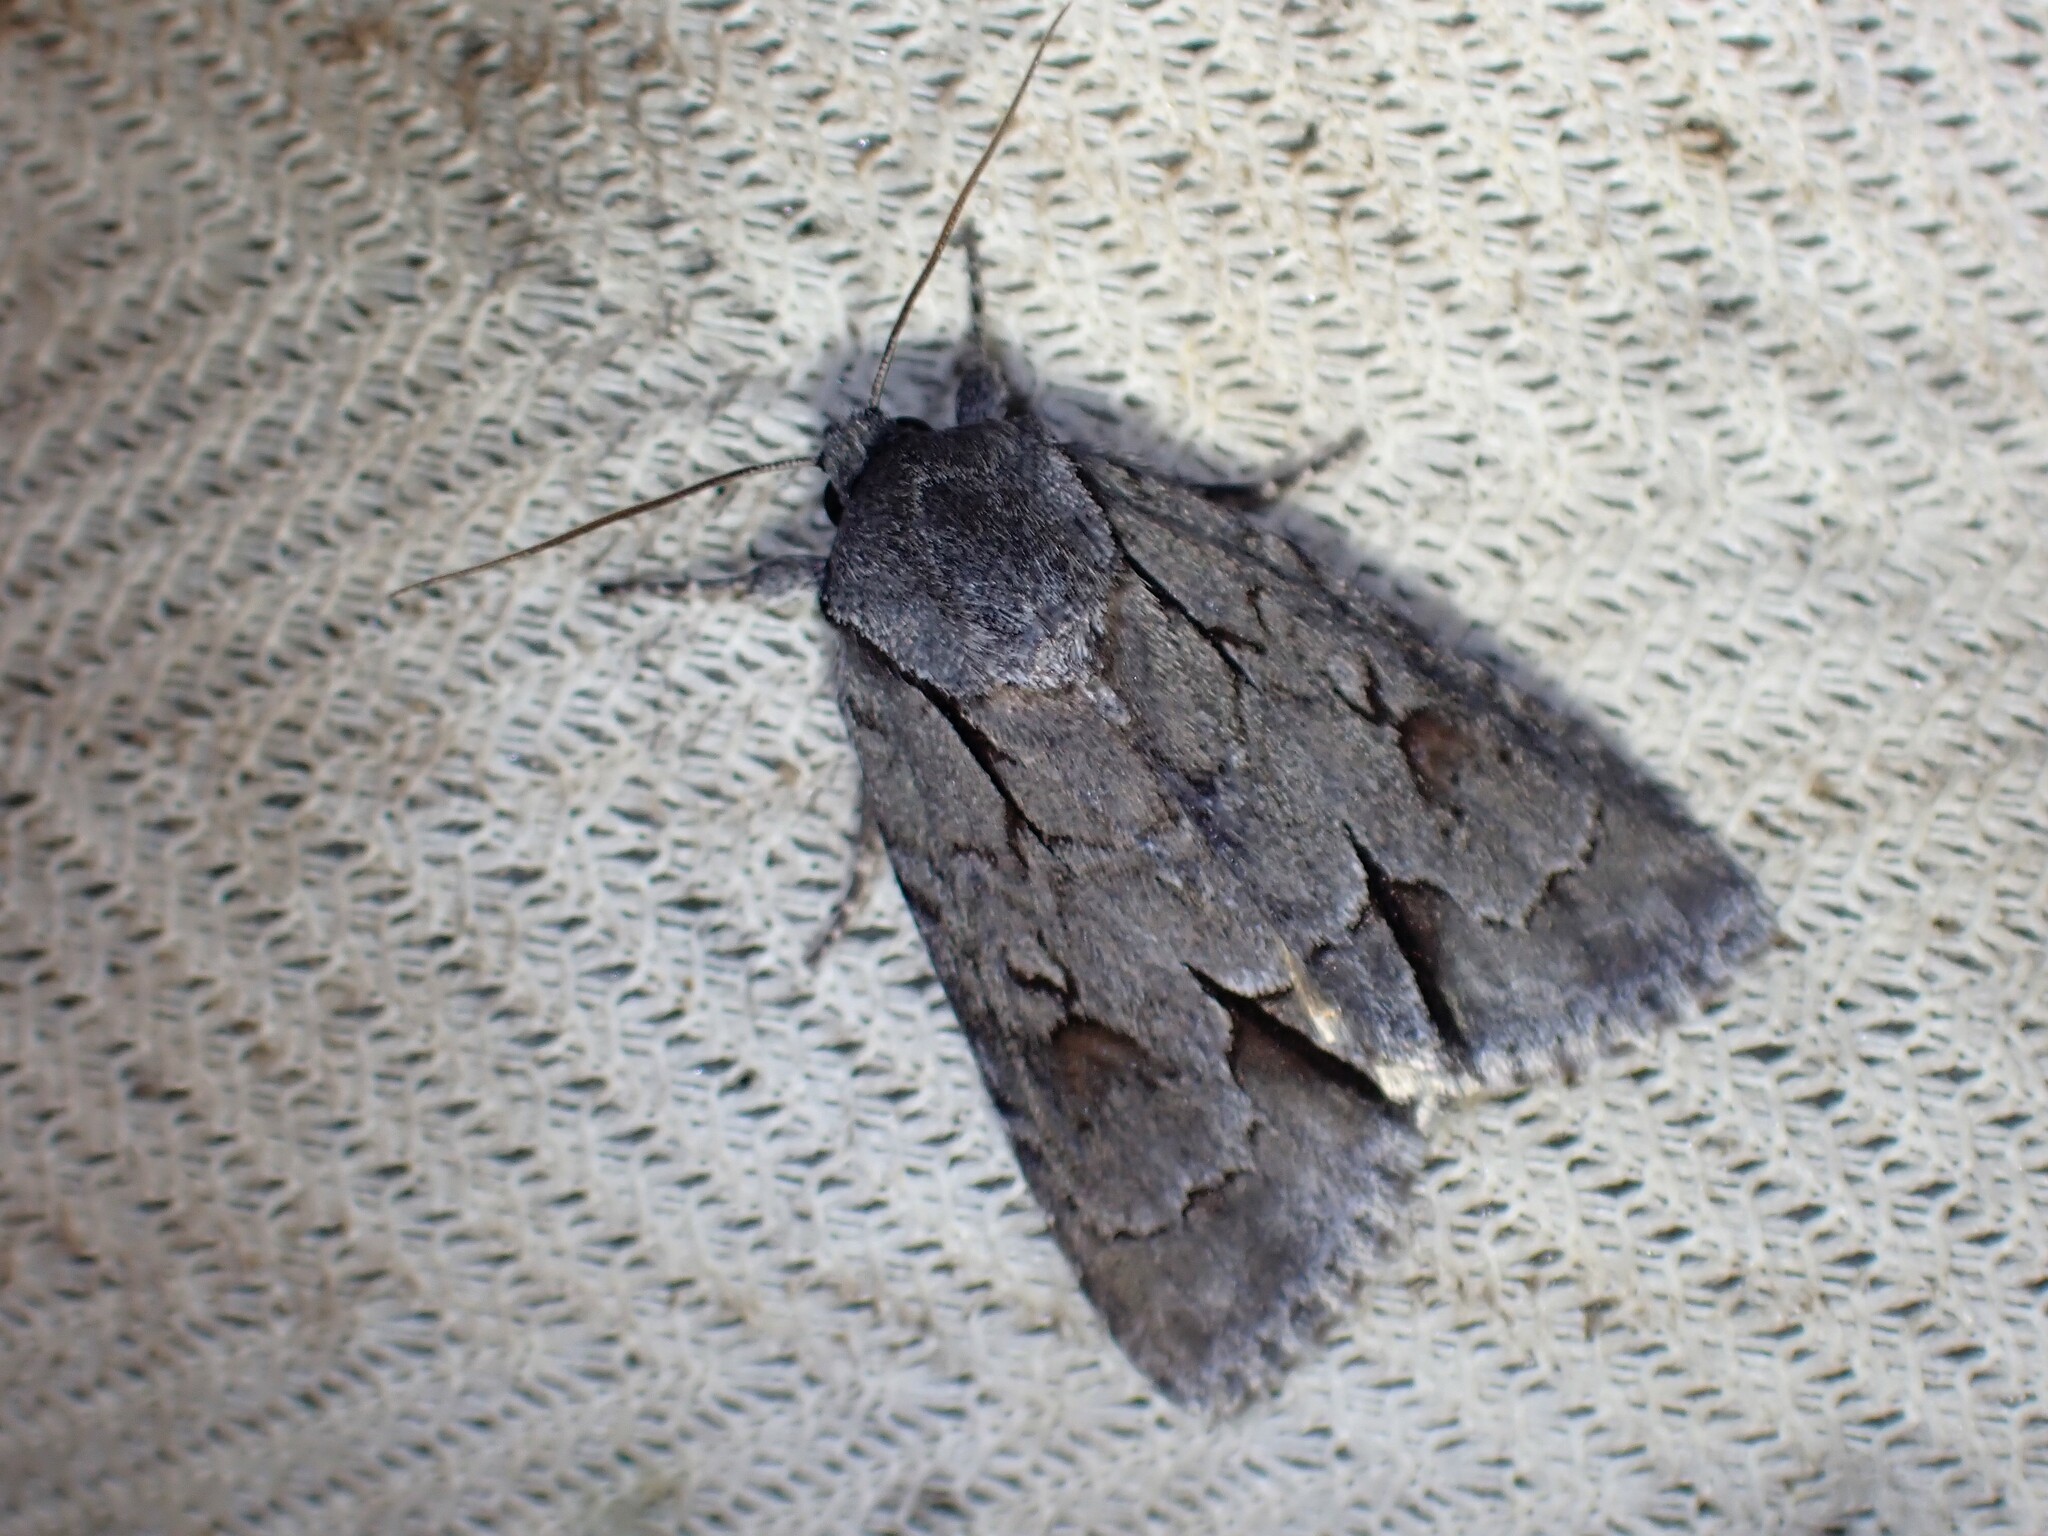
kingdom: Animalia
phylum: Arthropoda
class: Insecta
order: Lepidoptera
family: Noctuidae
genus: Acronicta
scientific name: Acronicta tritona
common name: Triton dagger
